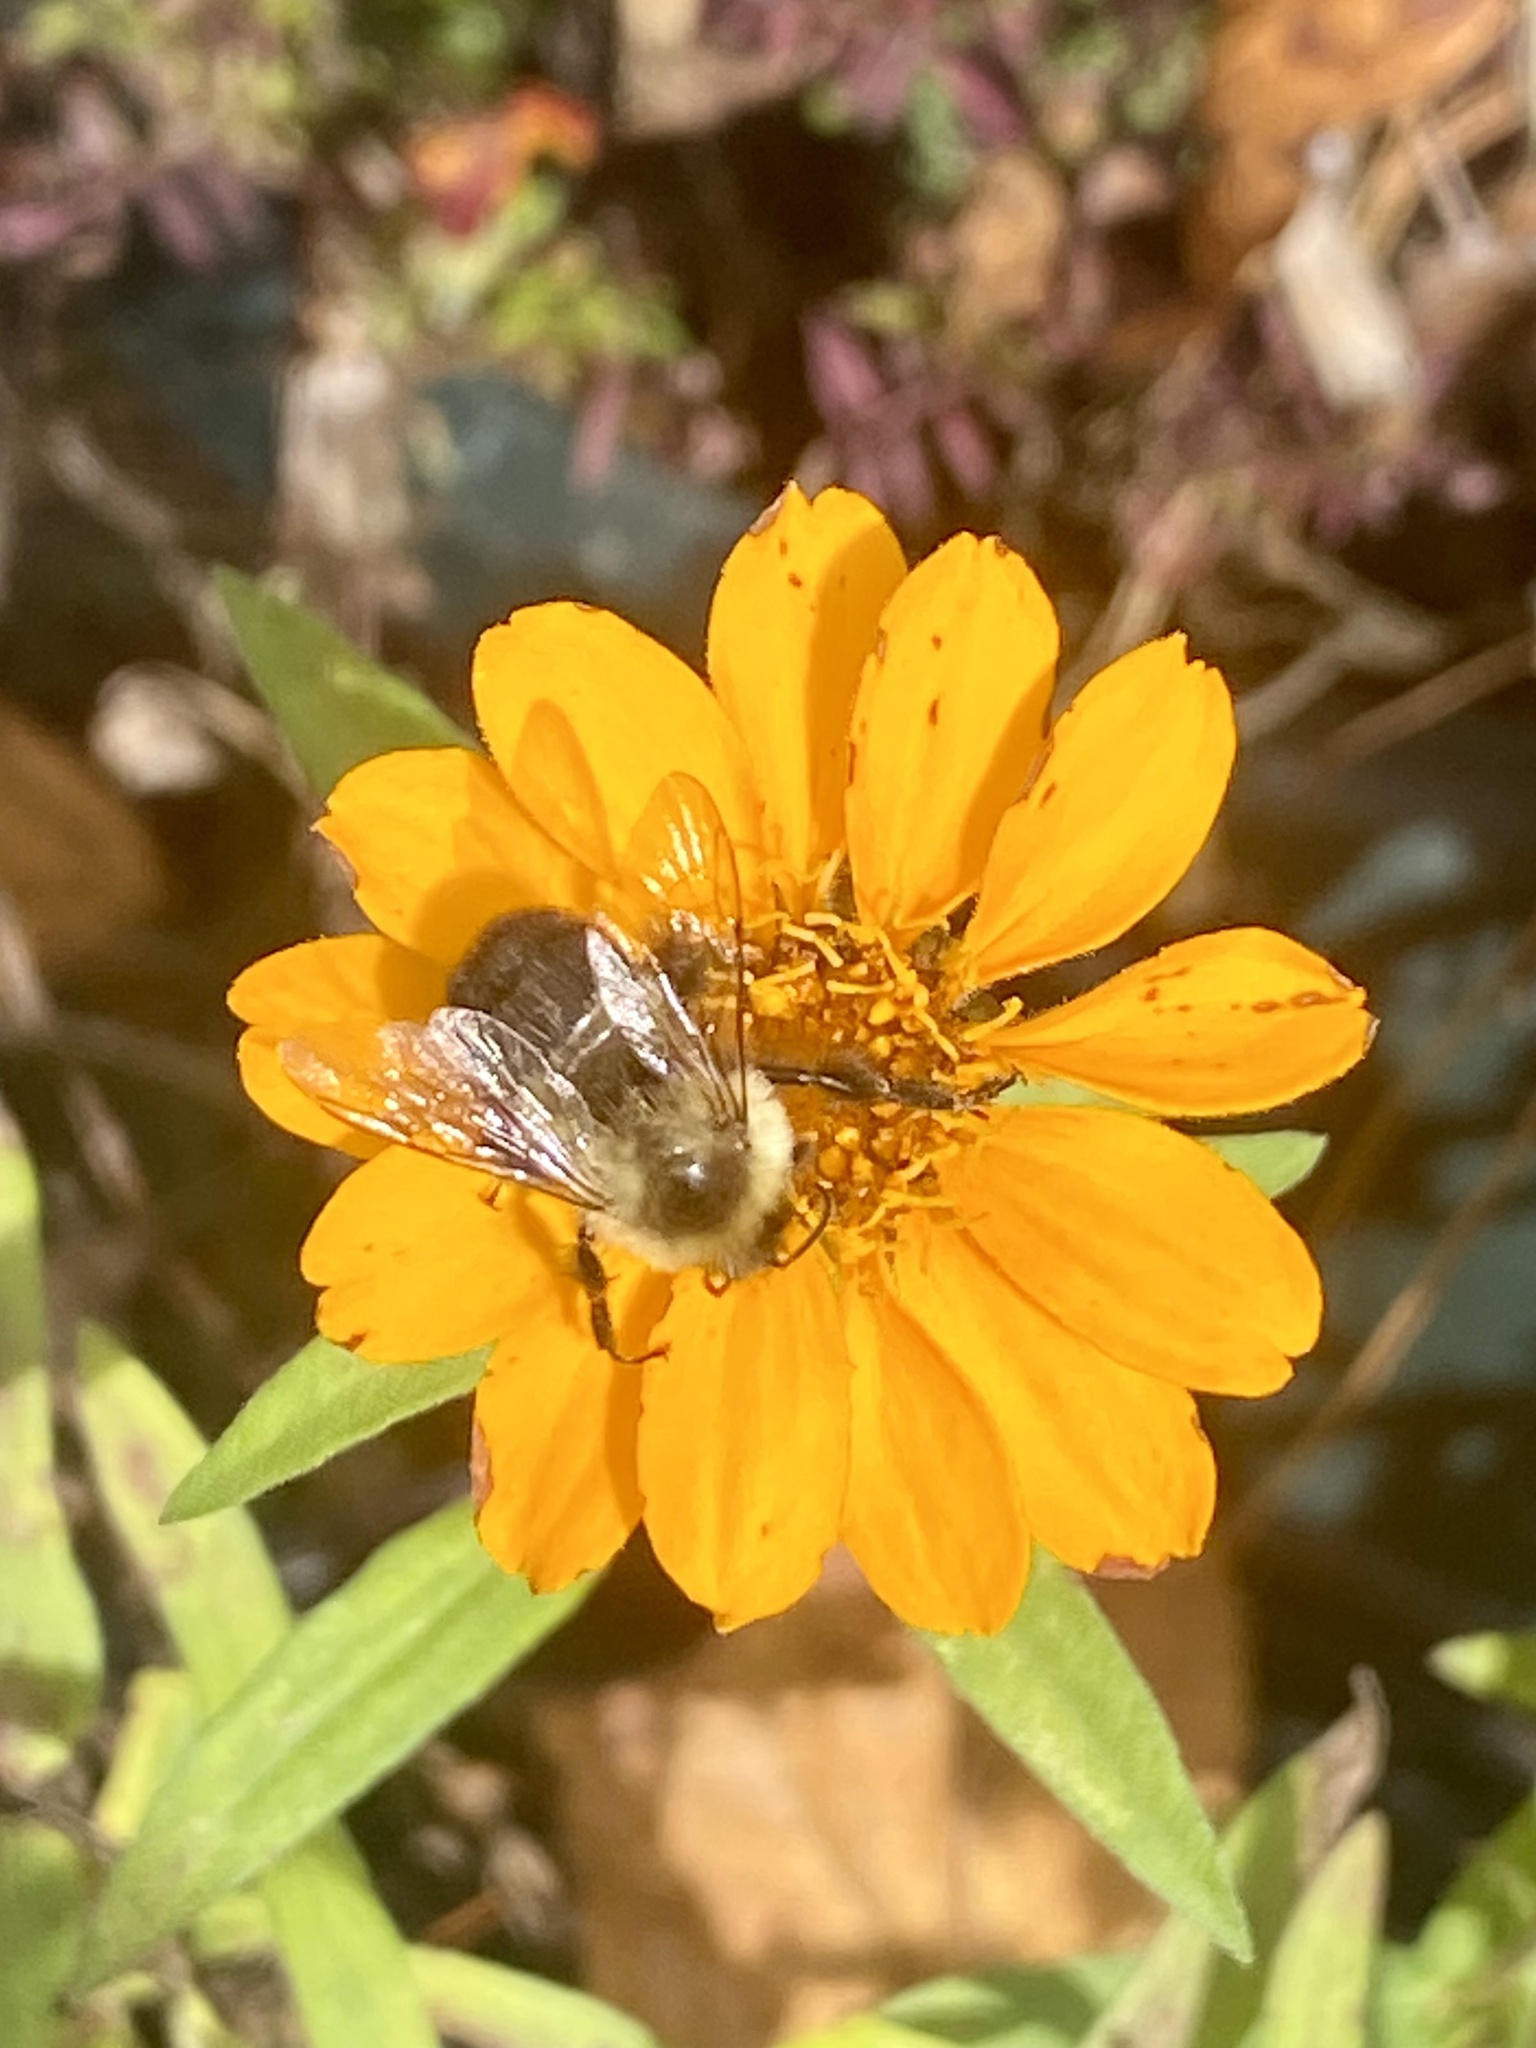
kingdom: Animalia
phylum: Arthropoda
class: Insecta
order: Hymenoptera
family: Apidae
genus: Bombus
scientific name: Bombus impatiens
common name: Common eastern bumble bee
